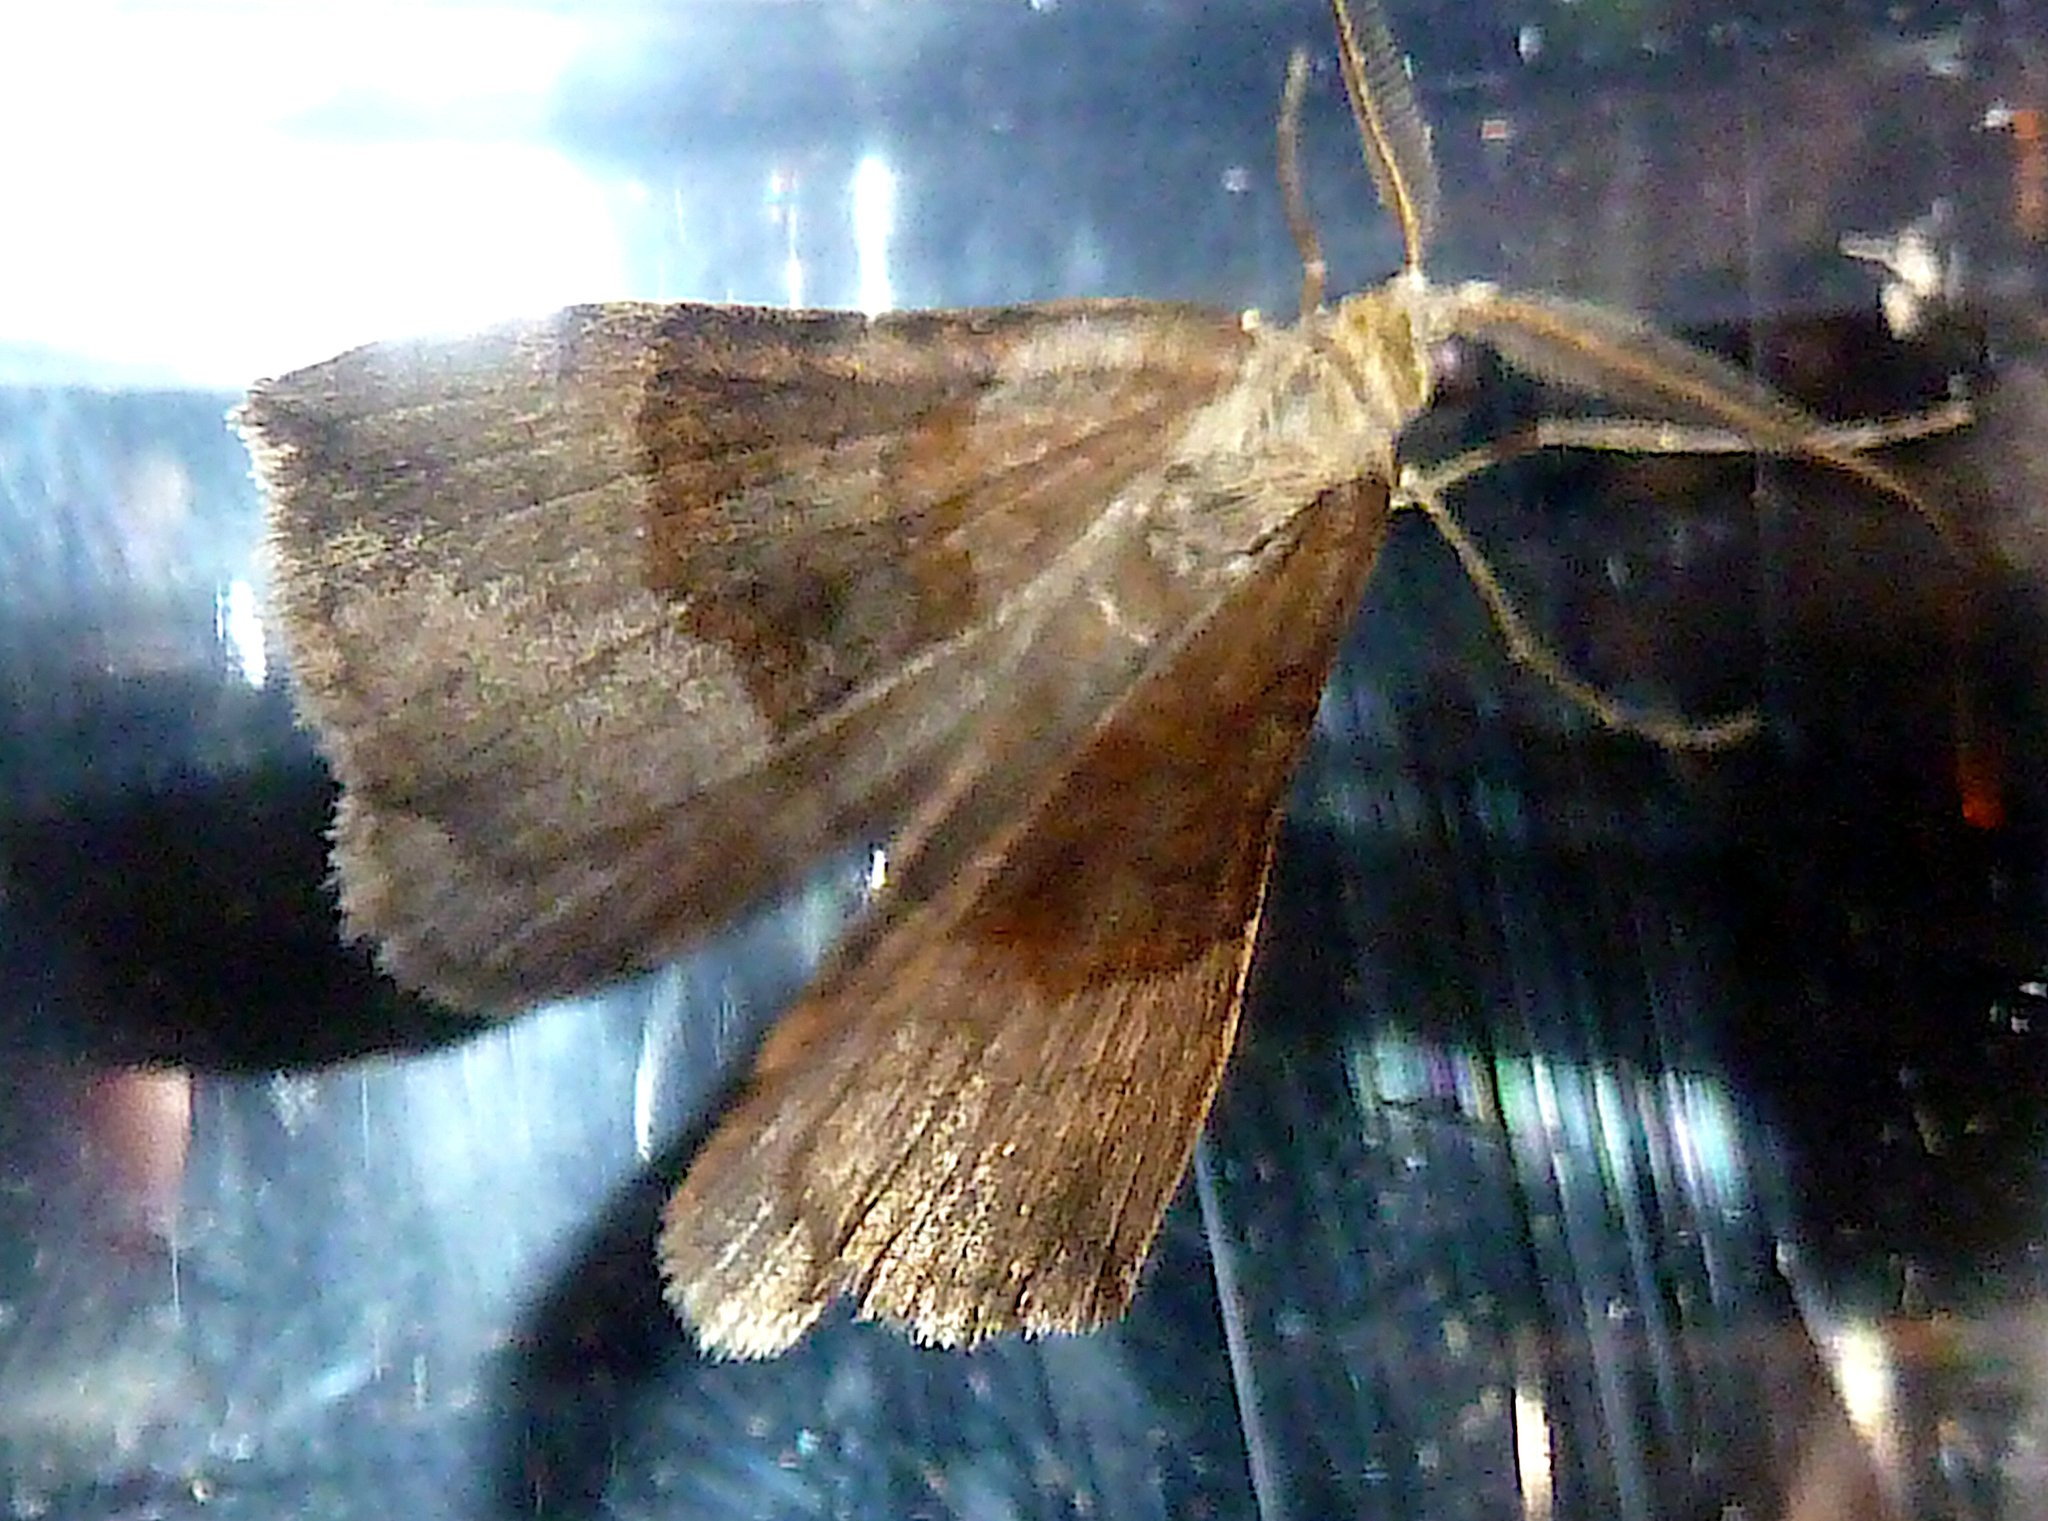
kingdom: Animalia
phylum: Arthropoda
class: Insecta
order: Lepidoptera
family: Geometridae
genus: Scotopteryx
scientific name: Scotopteryx chenopodiata
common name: Shaded broad-bar
